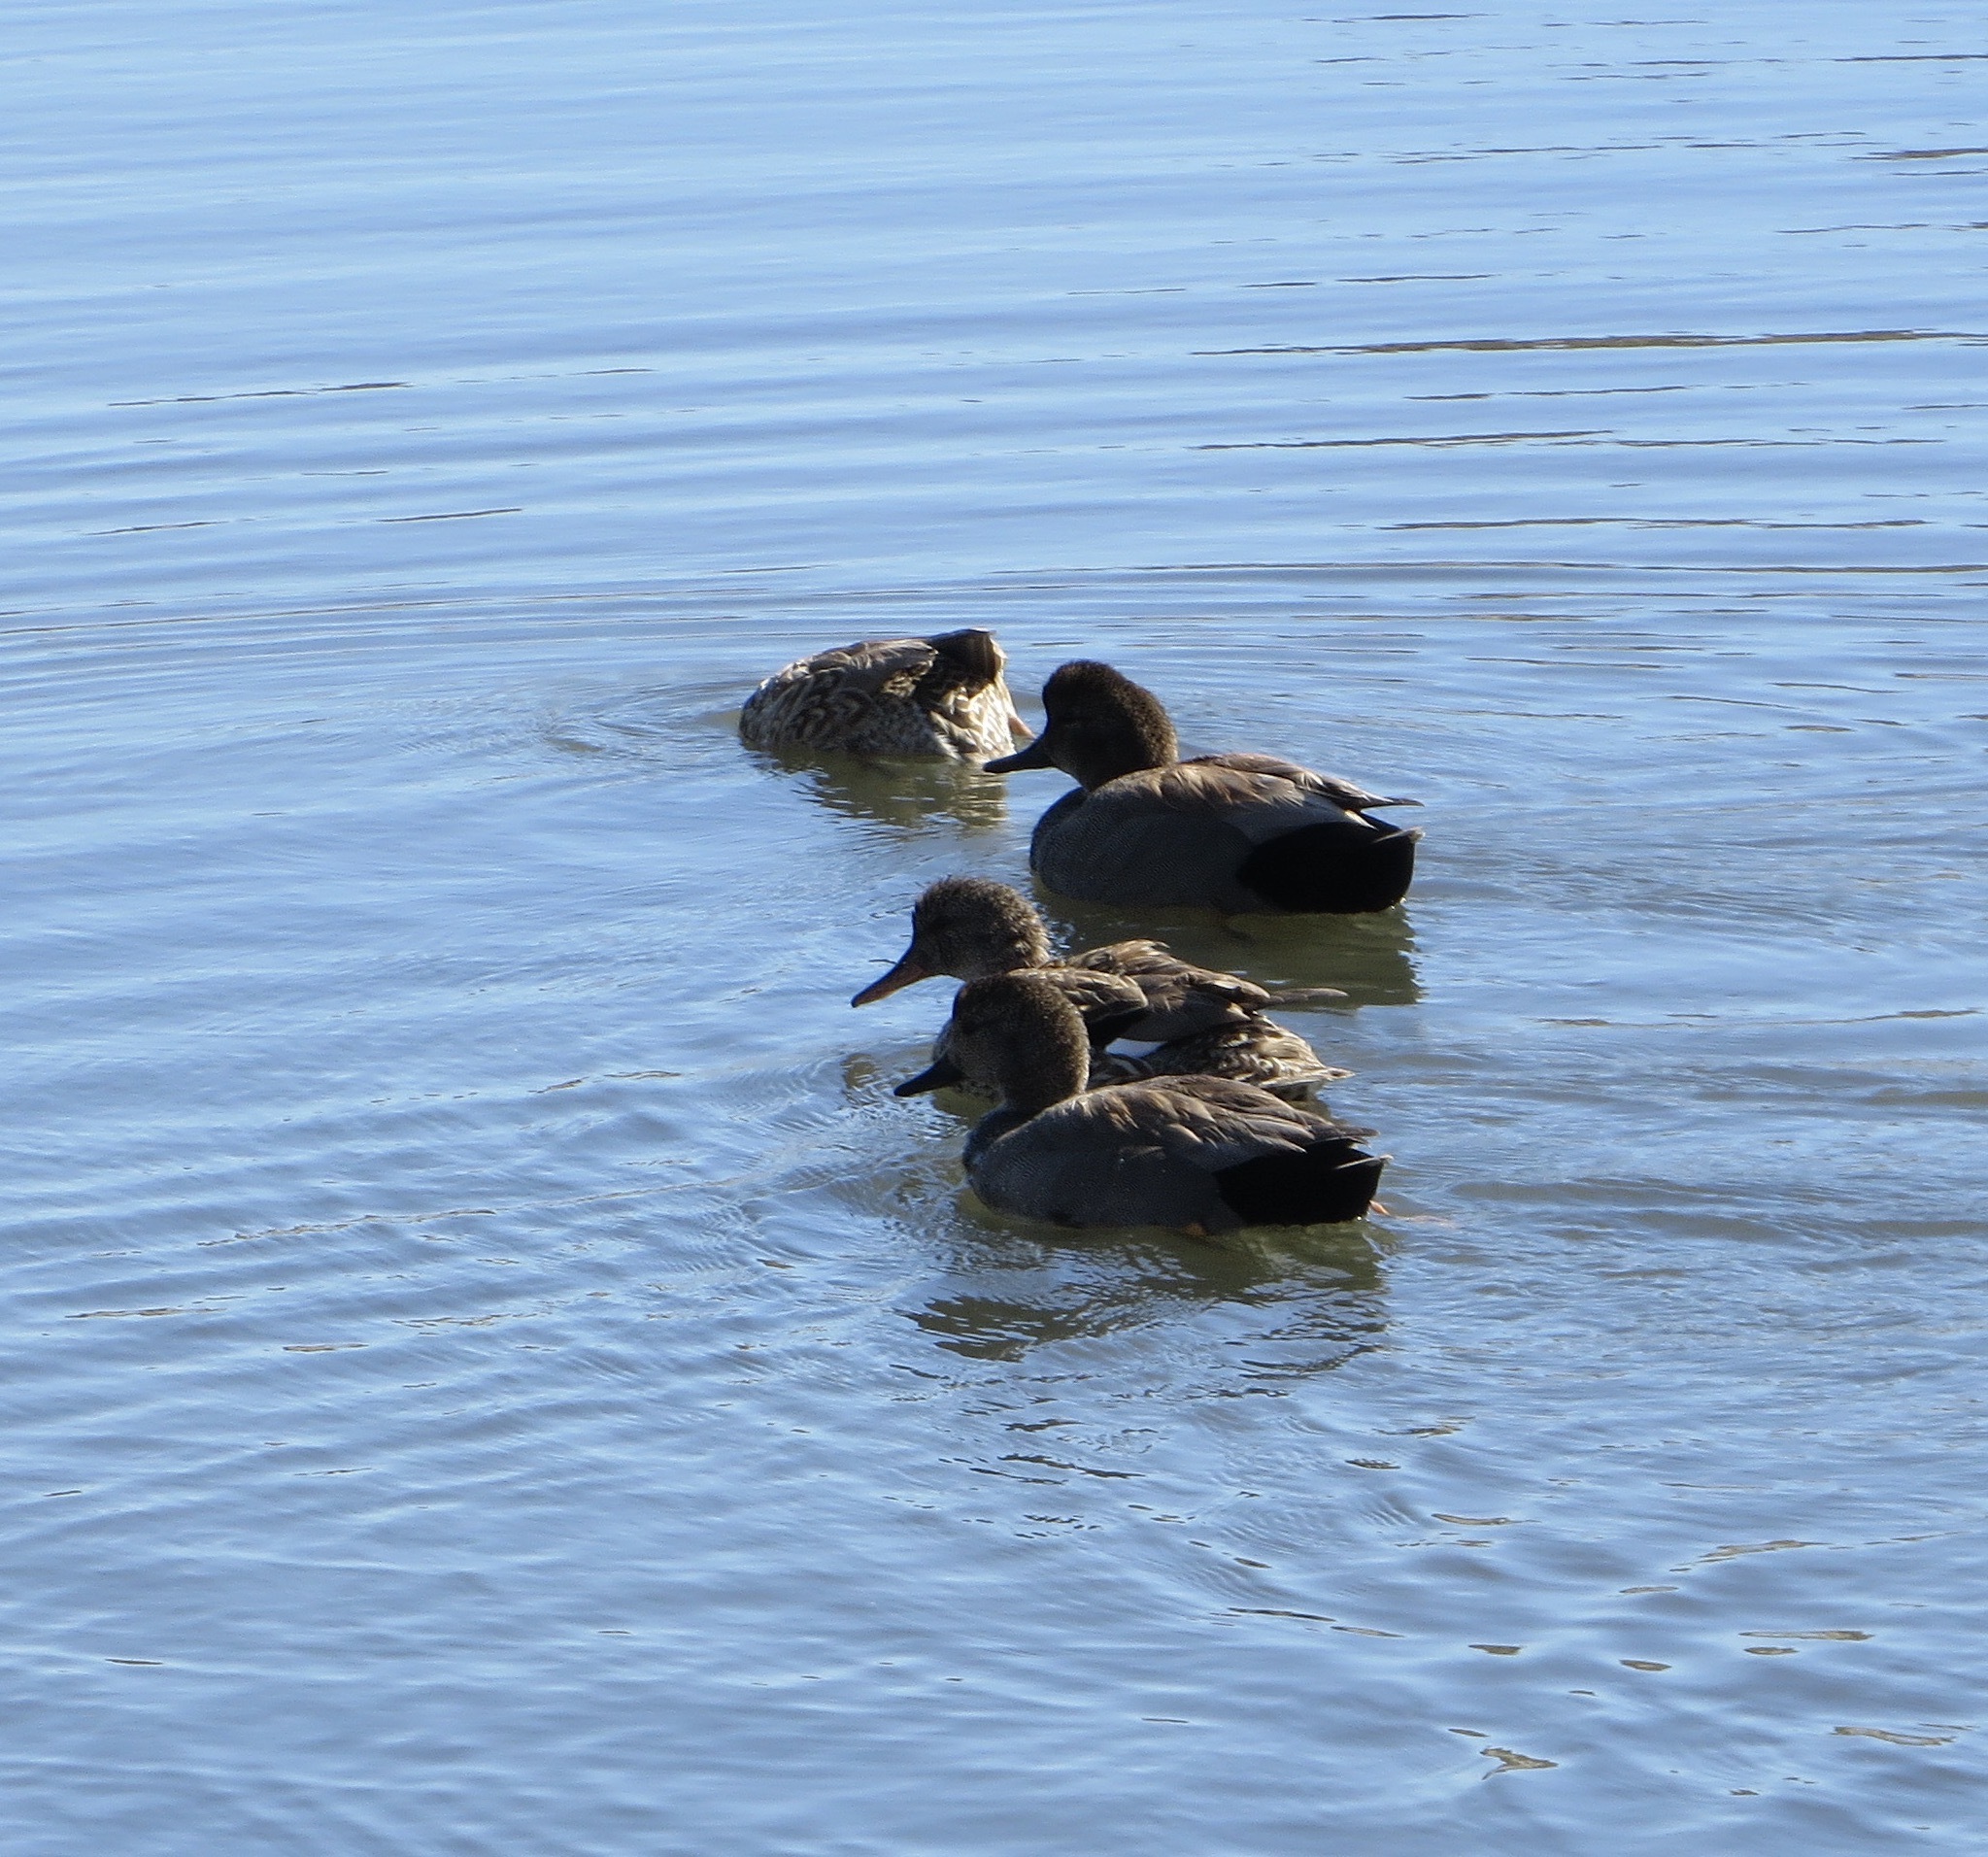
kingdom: Animalia
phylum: Chordata
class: Aves
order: Anseriformes
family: Anatidae
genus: Mareca
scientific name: Mareca strepera
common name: Gadwall
